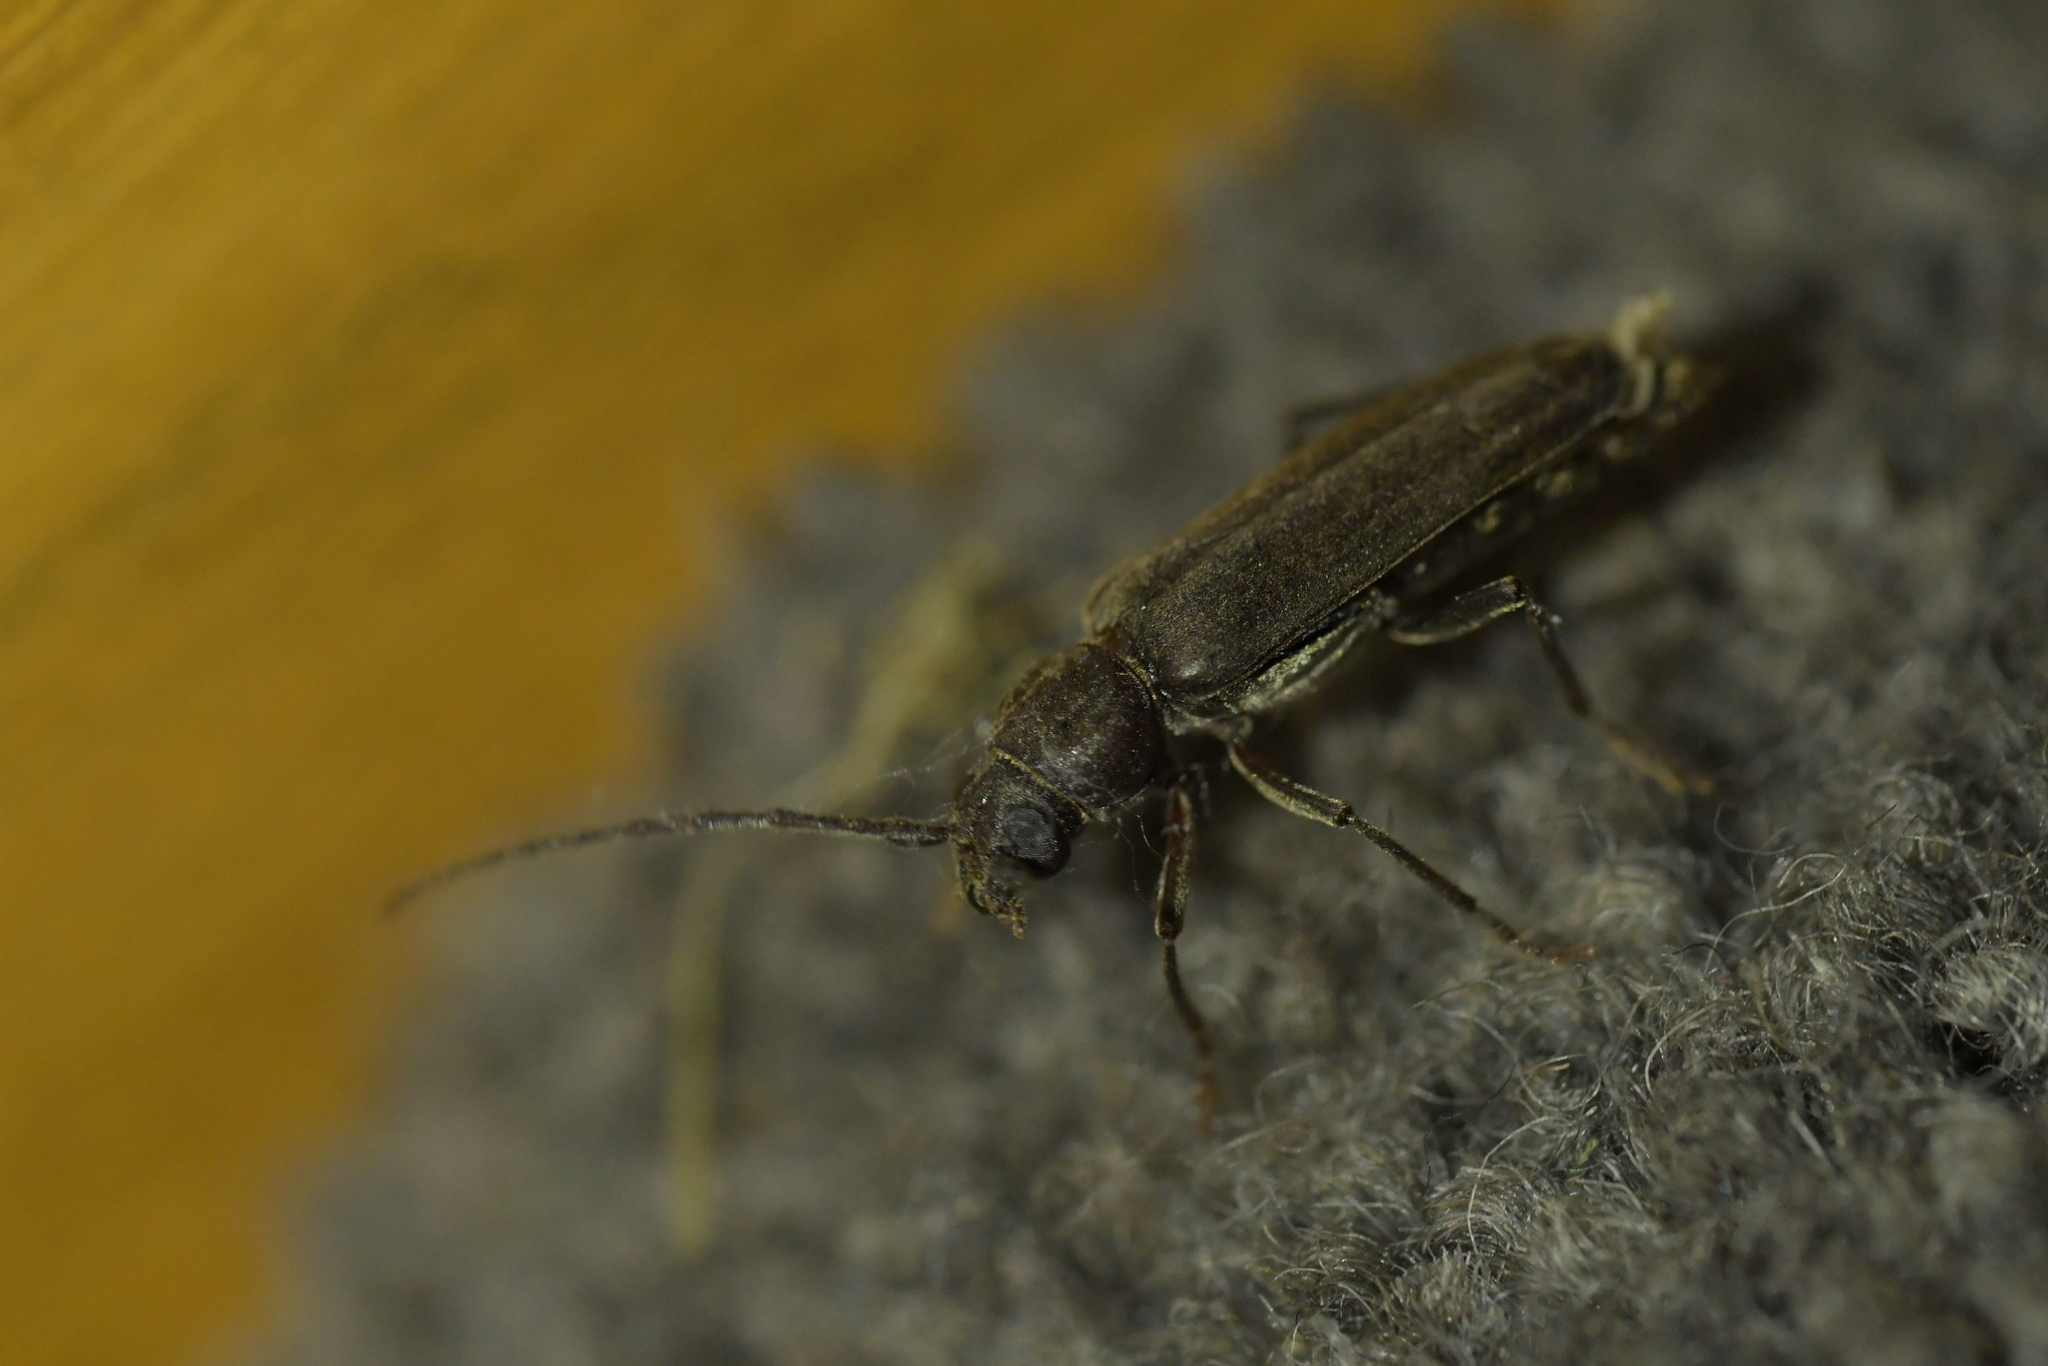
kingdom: Animalia
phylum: Arthropoda
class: Insecta
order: Coleoptera
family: Cerambycidae
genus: Arhopalus
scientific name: Arhopalus ferus
